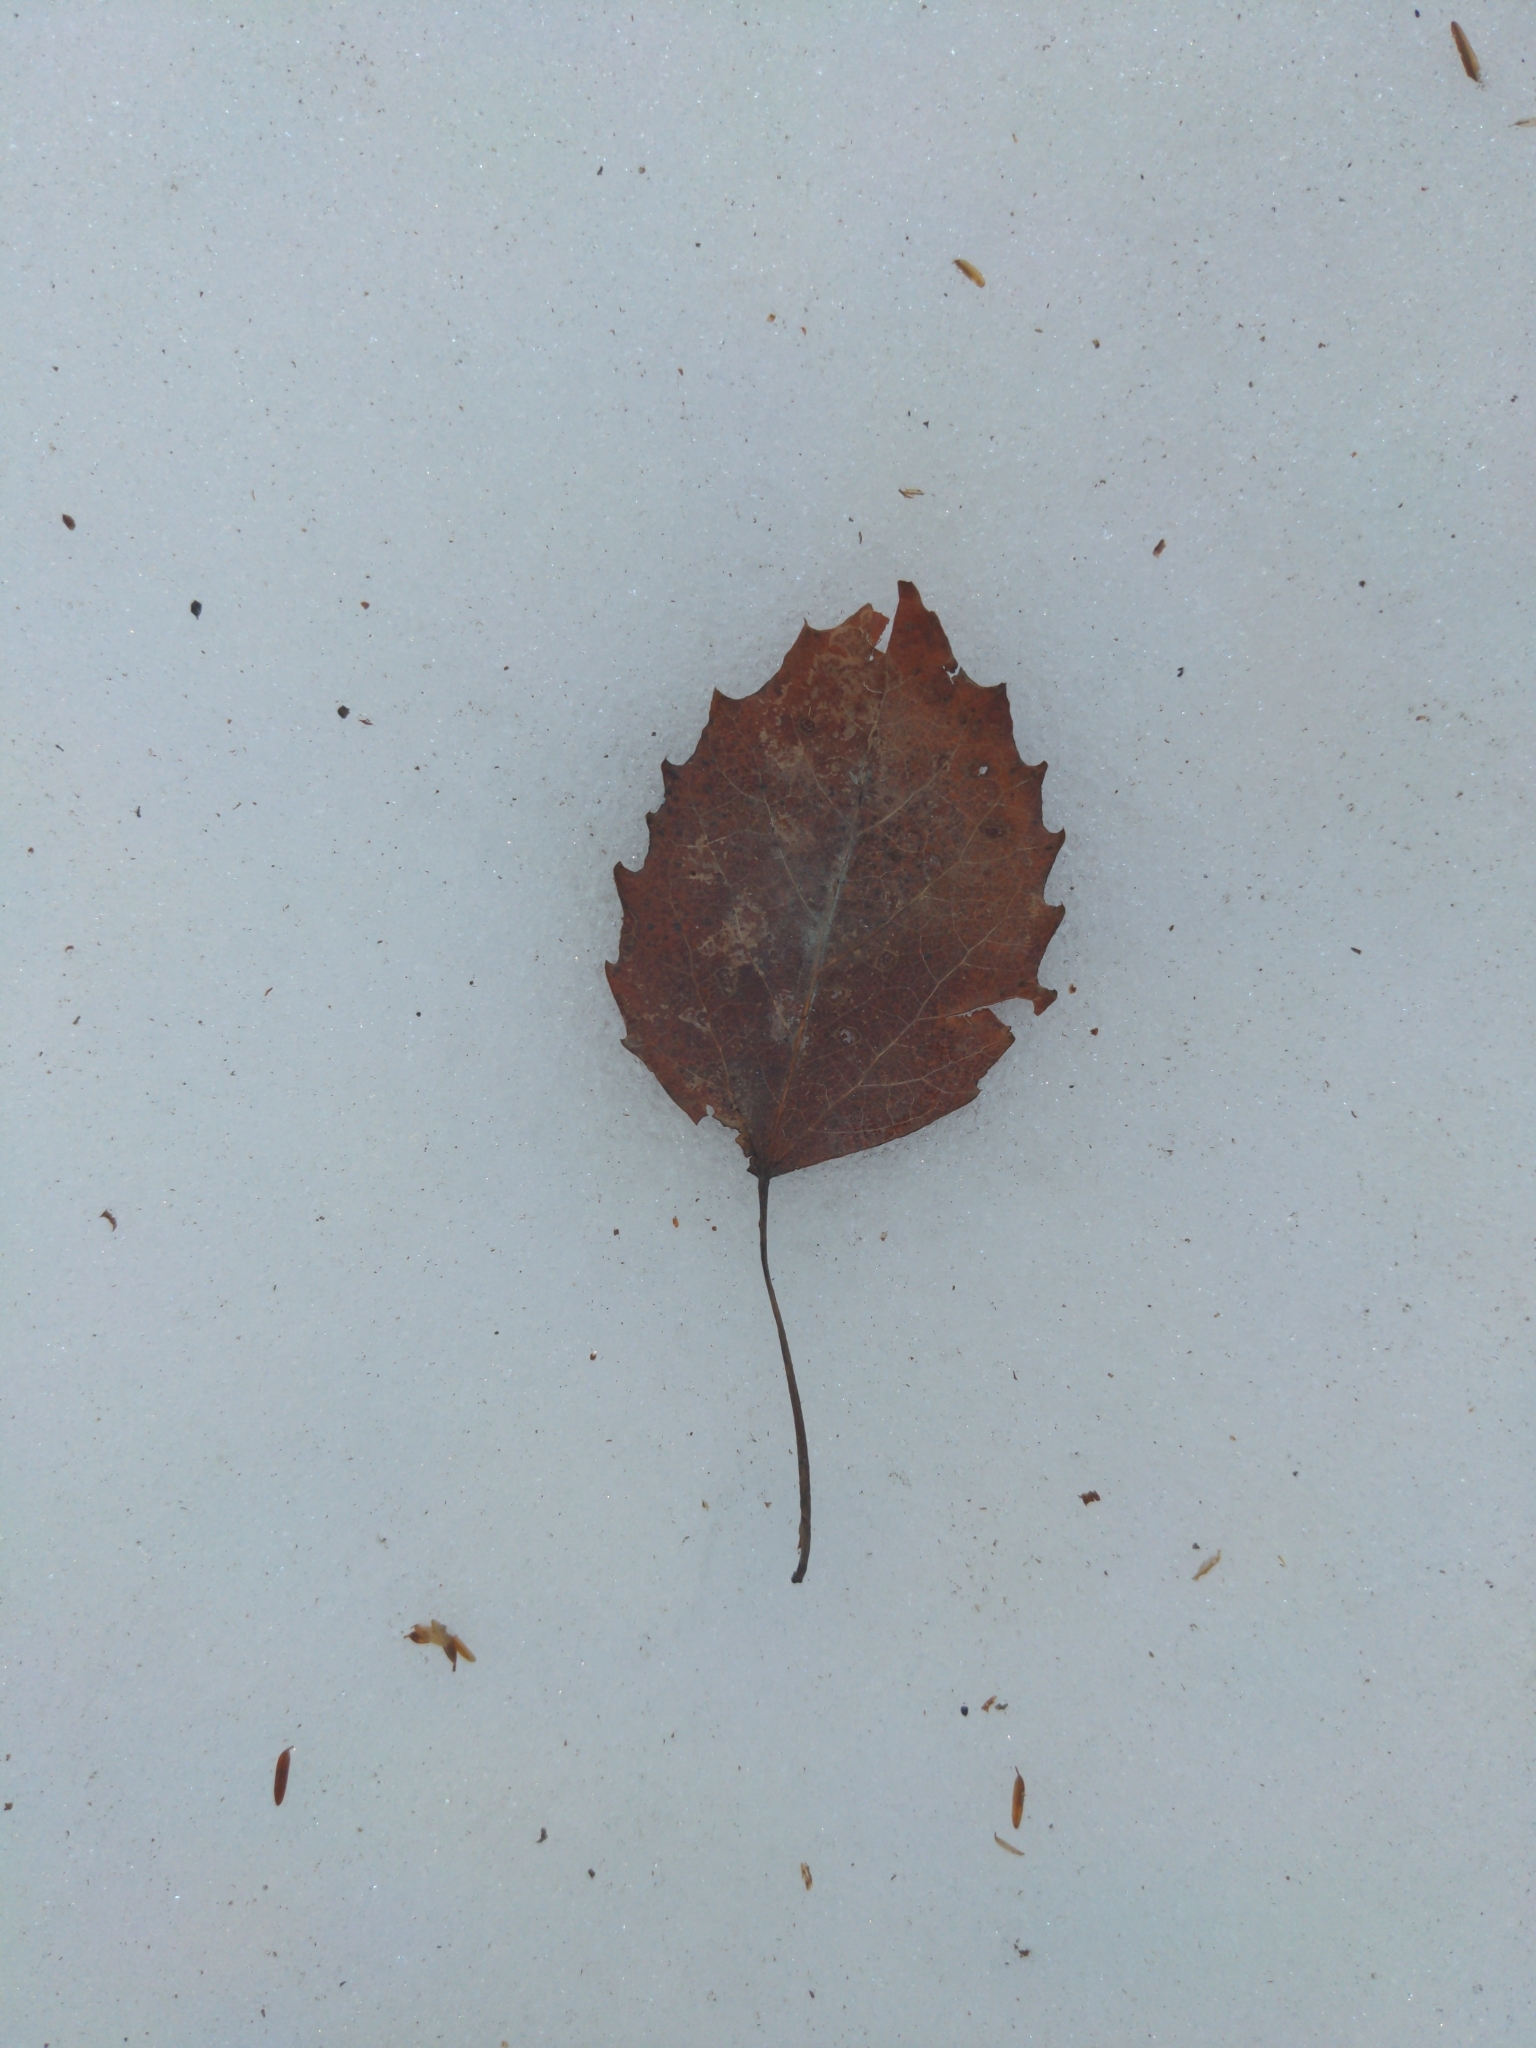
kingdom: Plantae
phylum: Tracheophyta
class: Magnoliopsida
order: Malpighiales
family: Salicaceae
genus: Populus
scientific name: Populus grandidentata
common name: Bigtooth aspen
